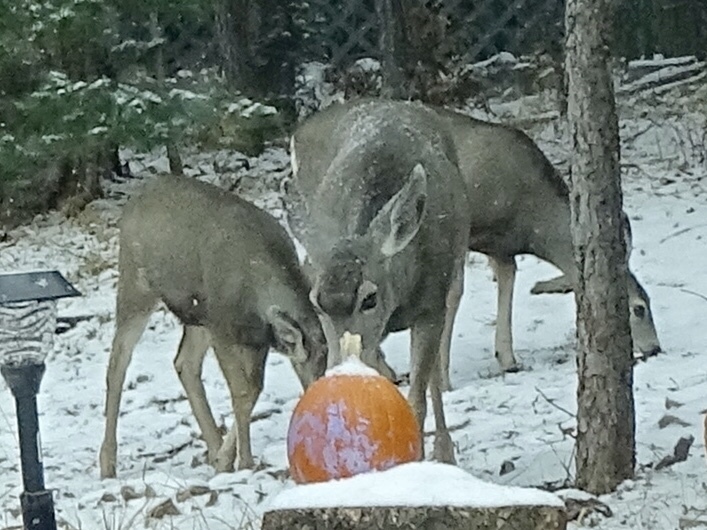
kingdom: Animalia
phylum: Chordata
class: Mammalia
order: Artiodactyla
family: Cervidae
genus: Odocoileus
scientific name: Odocoileus hemionus
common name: Mule deer
